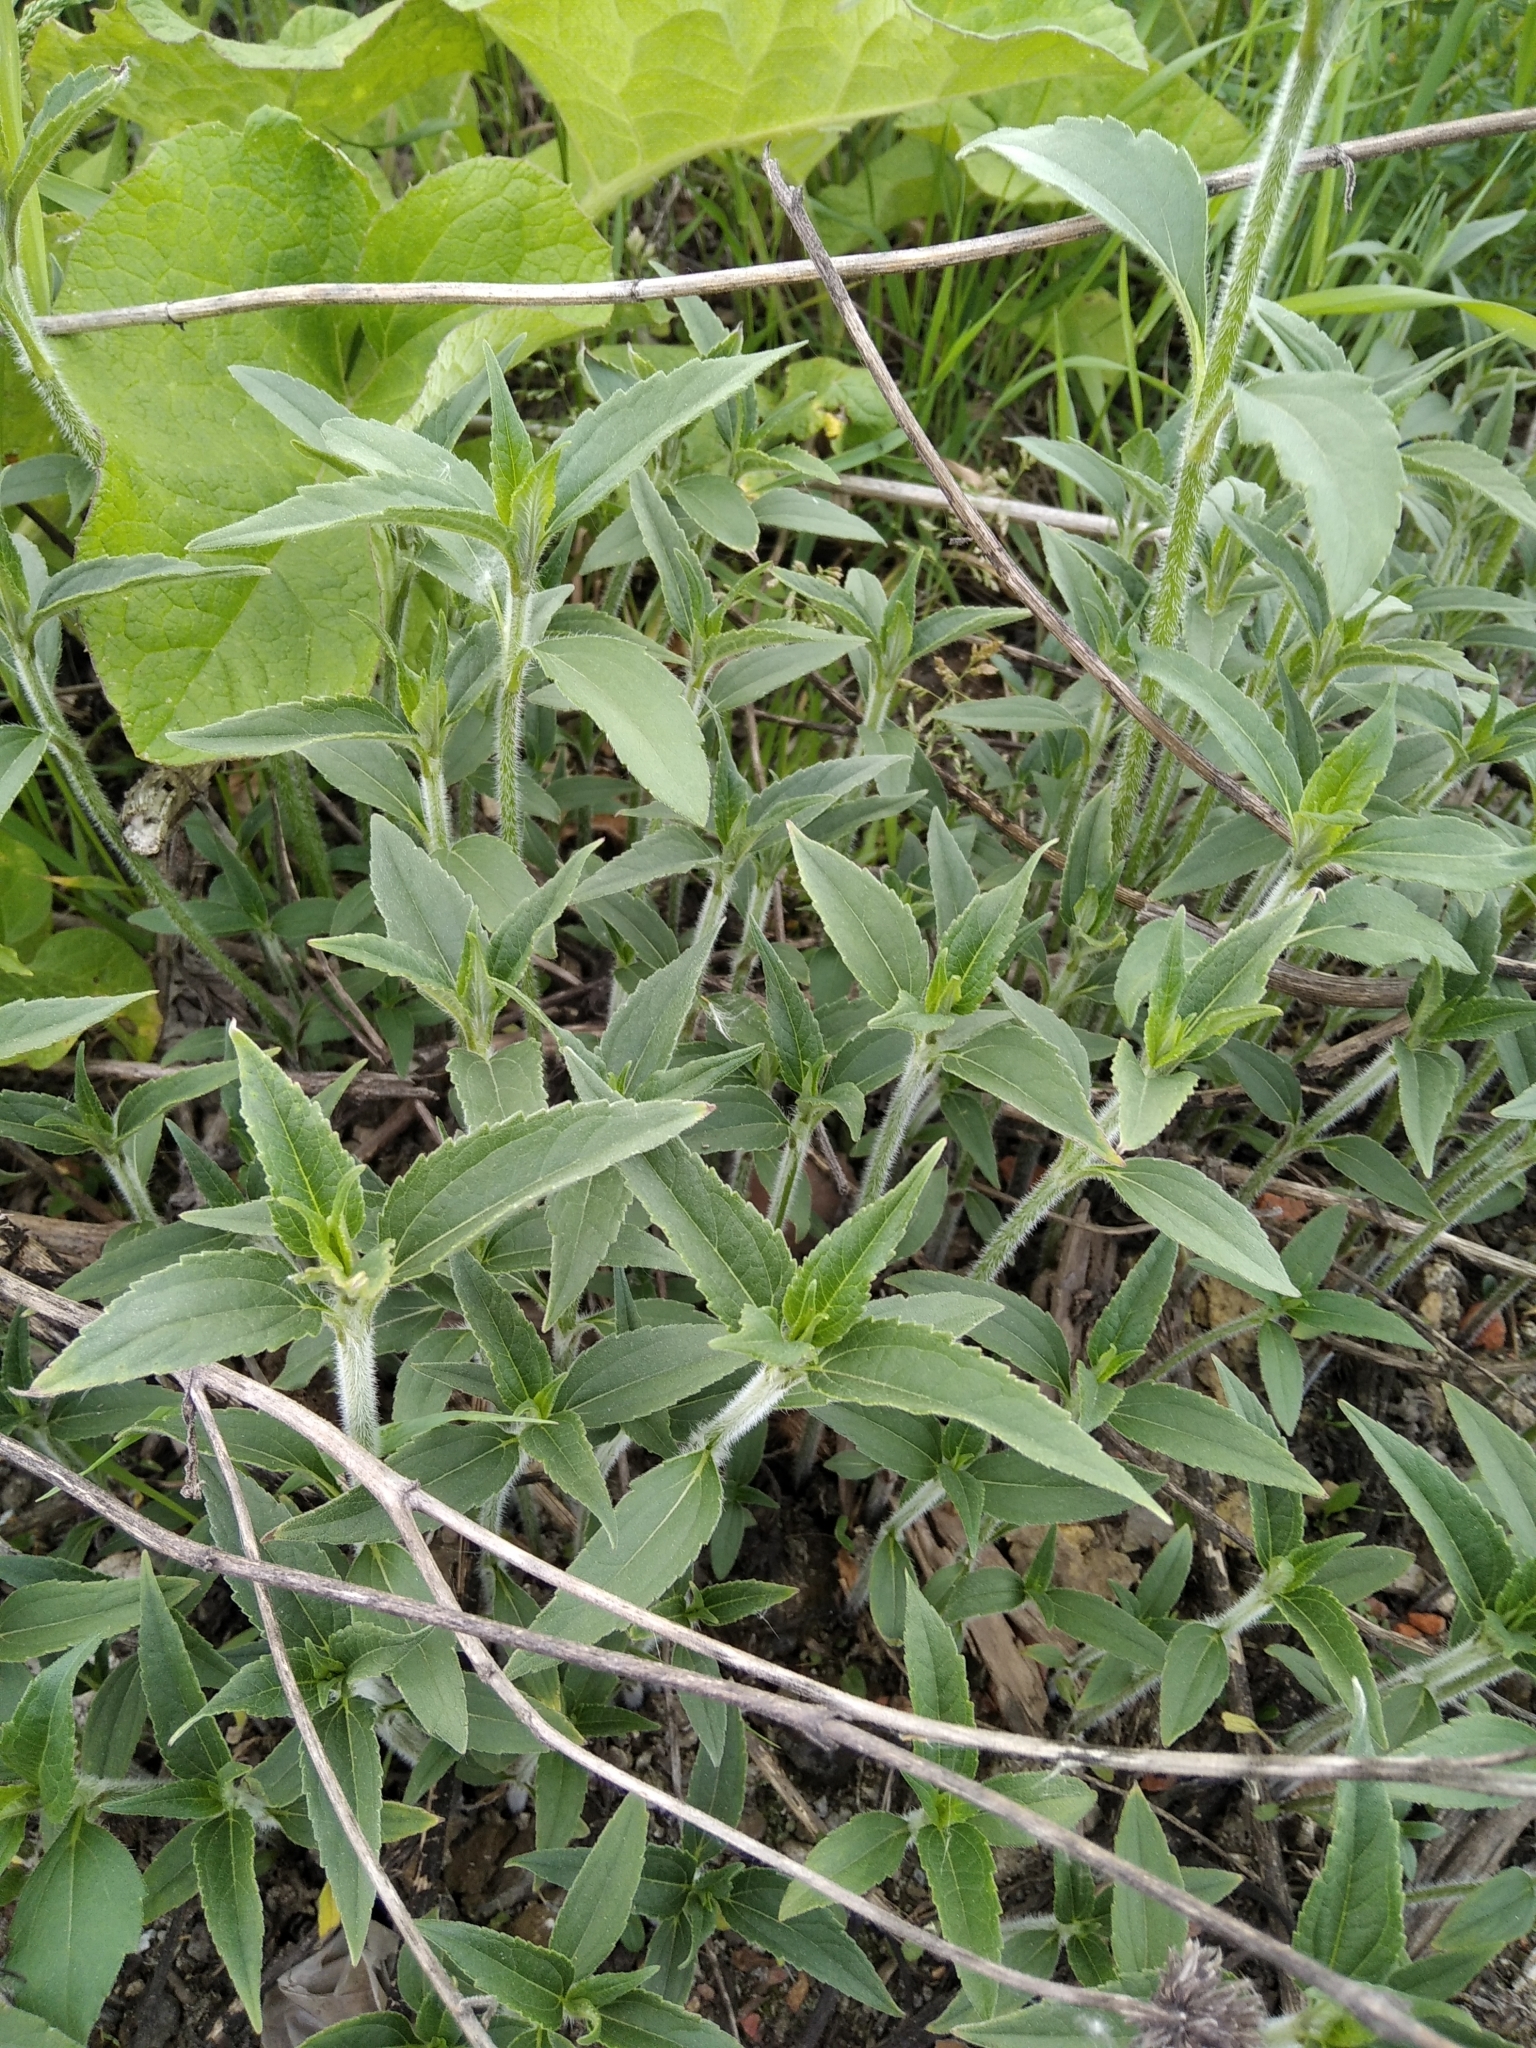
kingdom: Plantae
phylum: Tracheophyta
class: Magnoliopsida
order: Asterales
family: Asteraceae
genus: Helianthus
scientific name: Helianthus tuberosus
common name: Jerusalem artichoke
